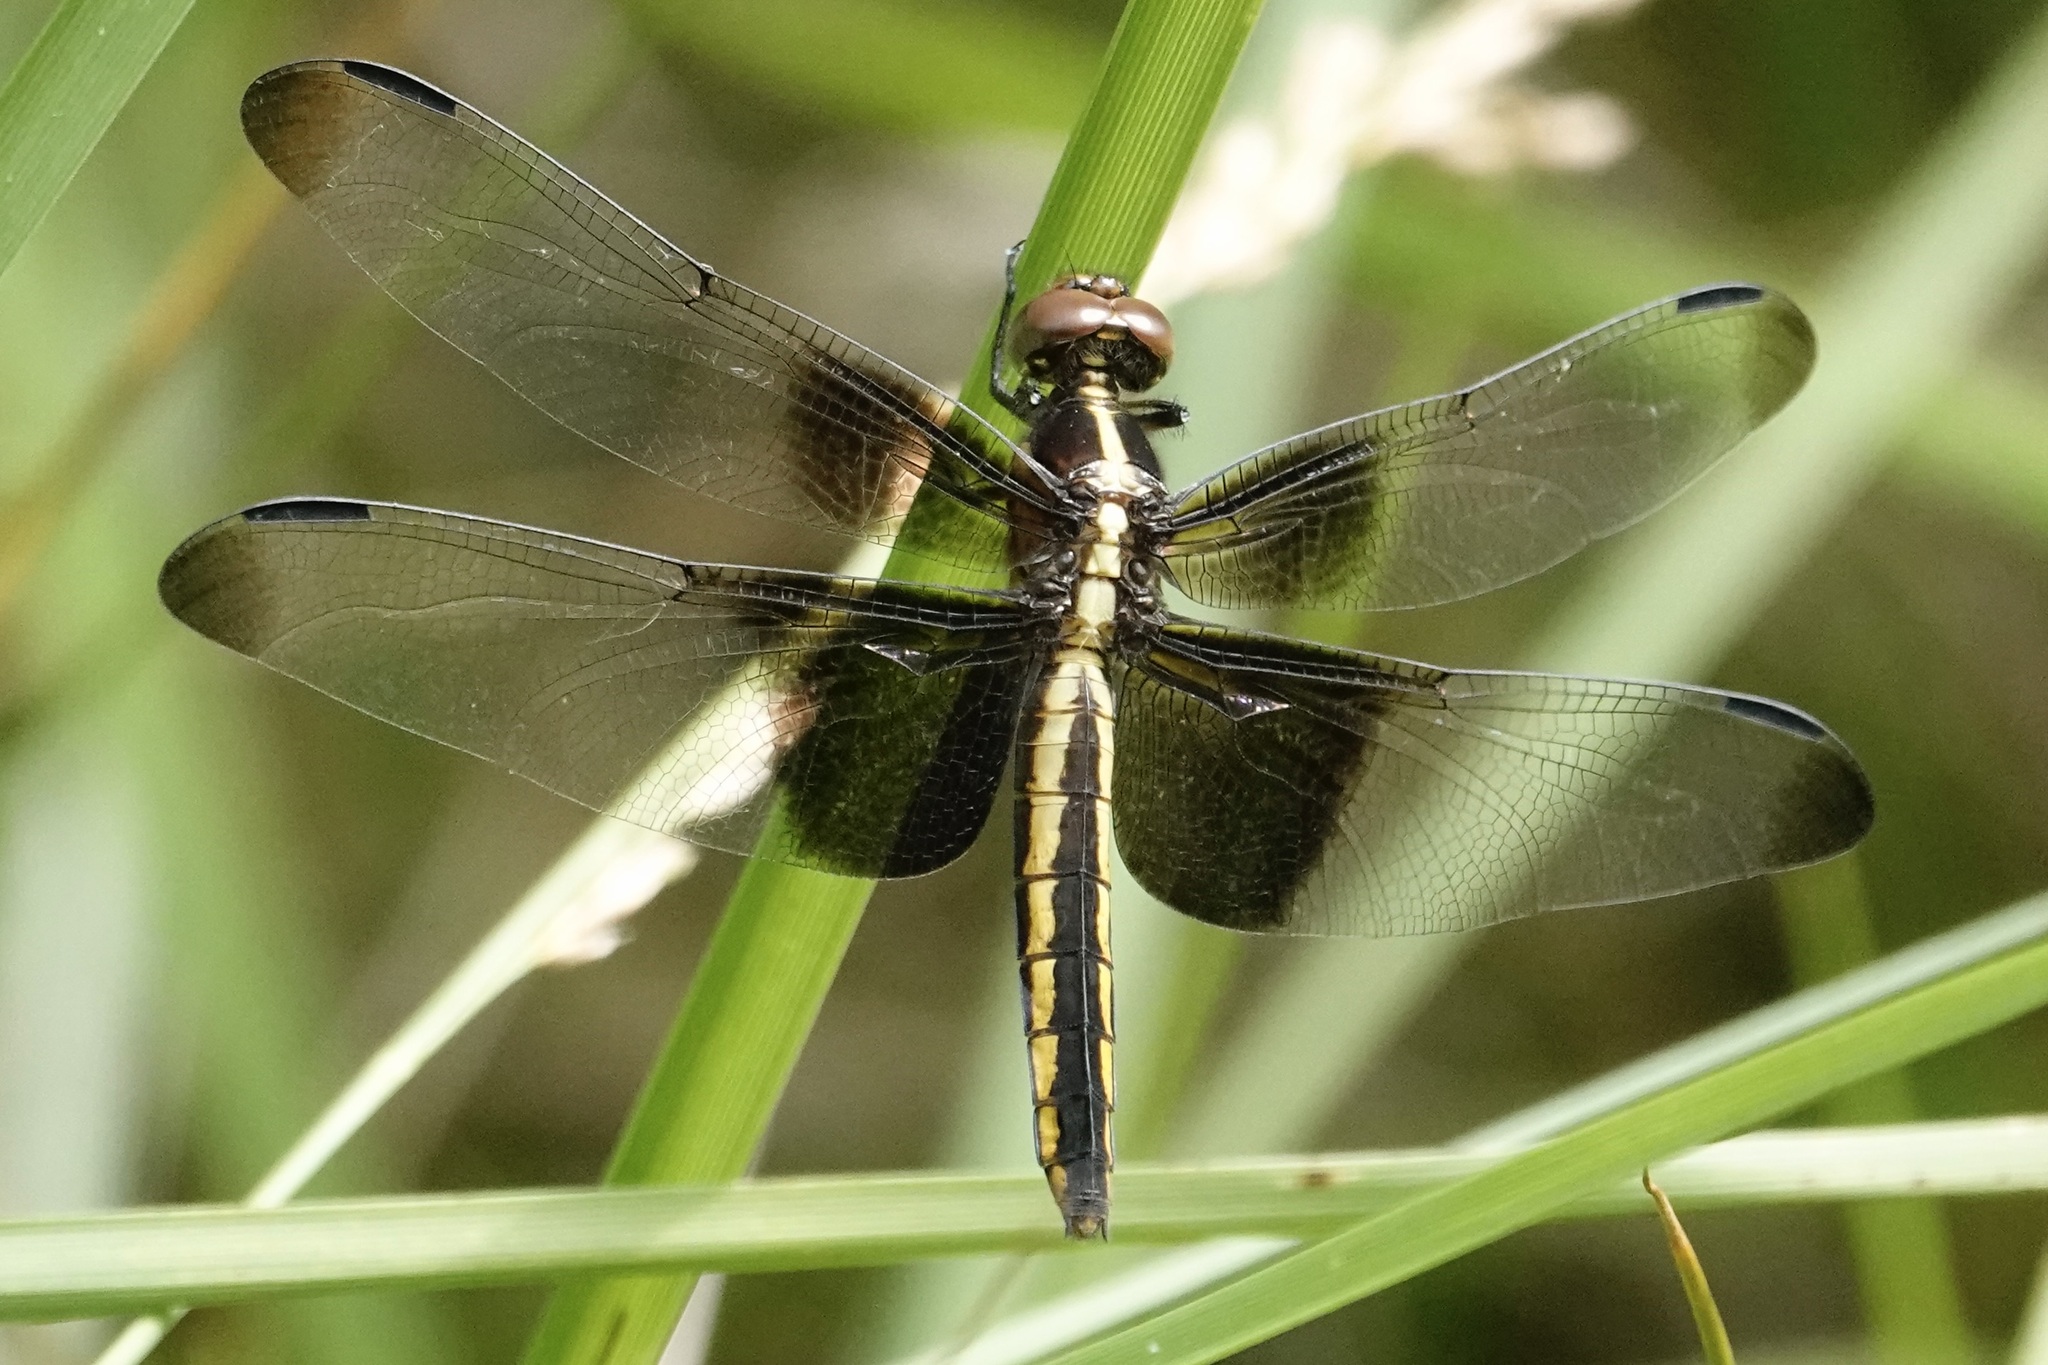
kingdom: Animalia
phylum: Arthropoda
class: Insecta
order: Odonata
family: Libellulidae
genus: Libellula
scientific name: Libellula luctuosa
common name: Widow skimmer
